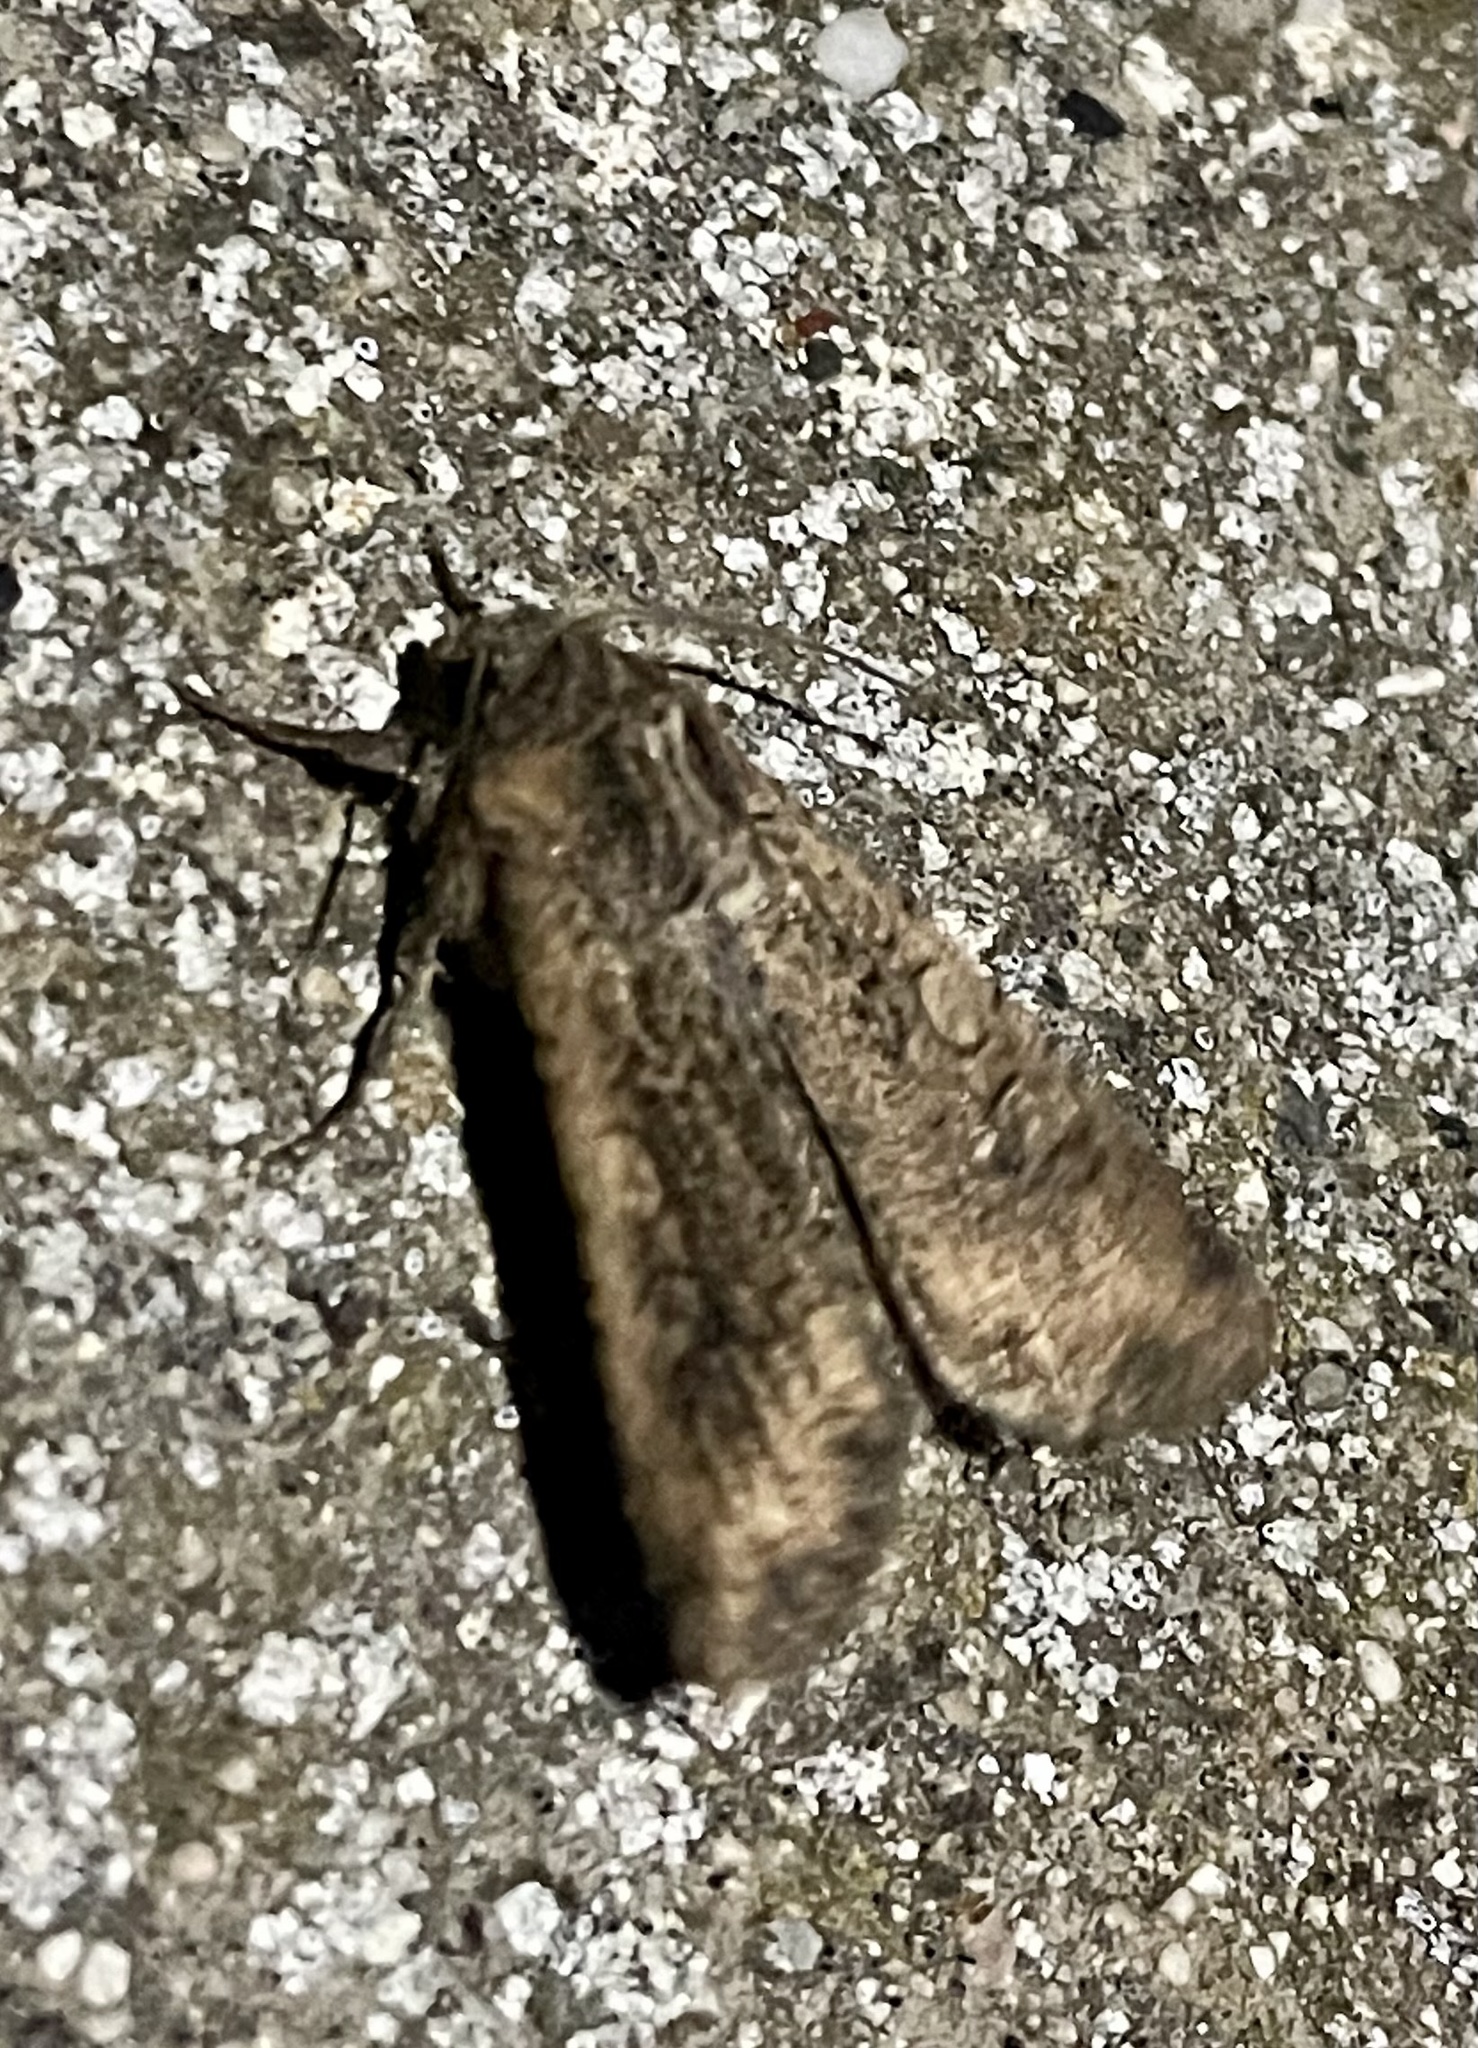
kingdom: Animalia
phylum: Arthropoda
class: Insecta
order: Lepidoptera
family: Noctuidae
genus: Peridroma
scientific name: Peridroma saucia
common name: Pearly underwing
